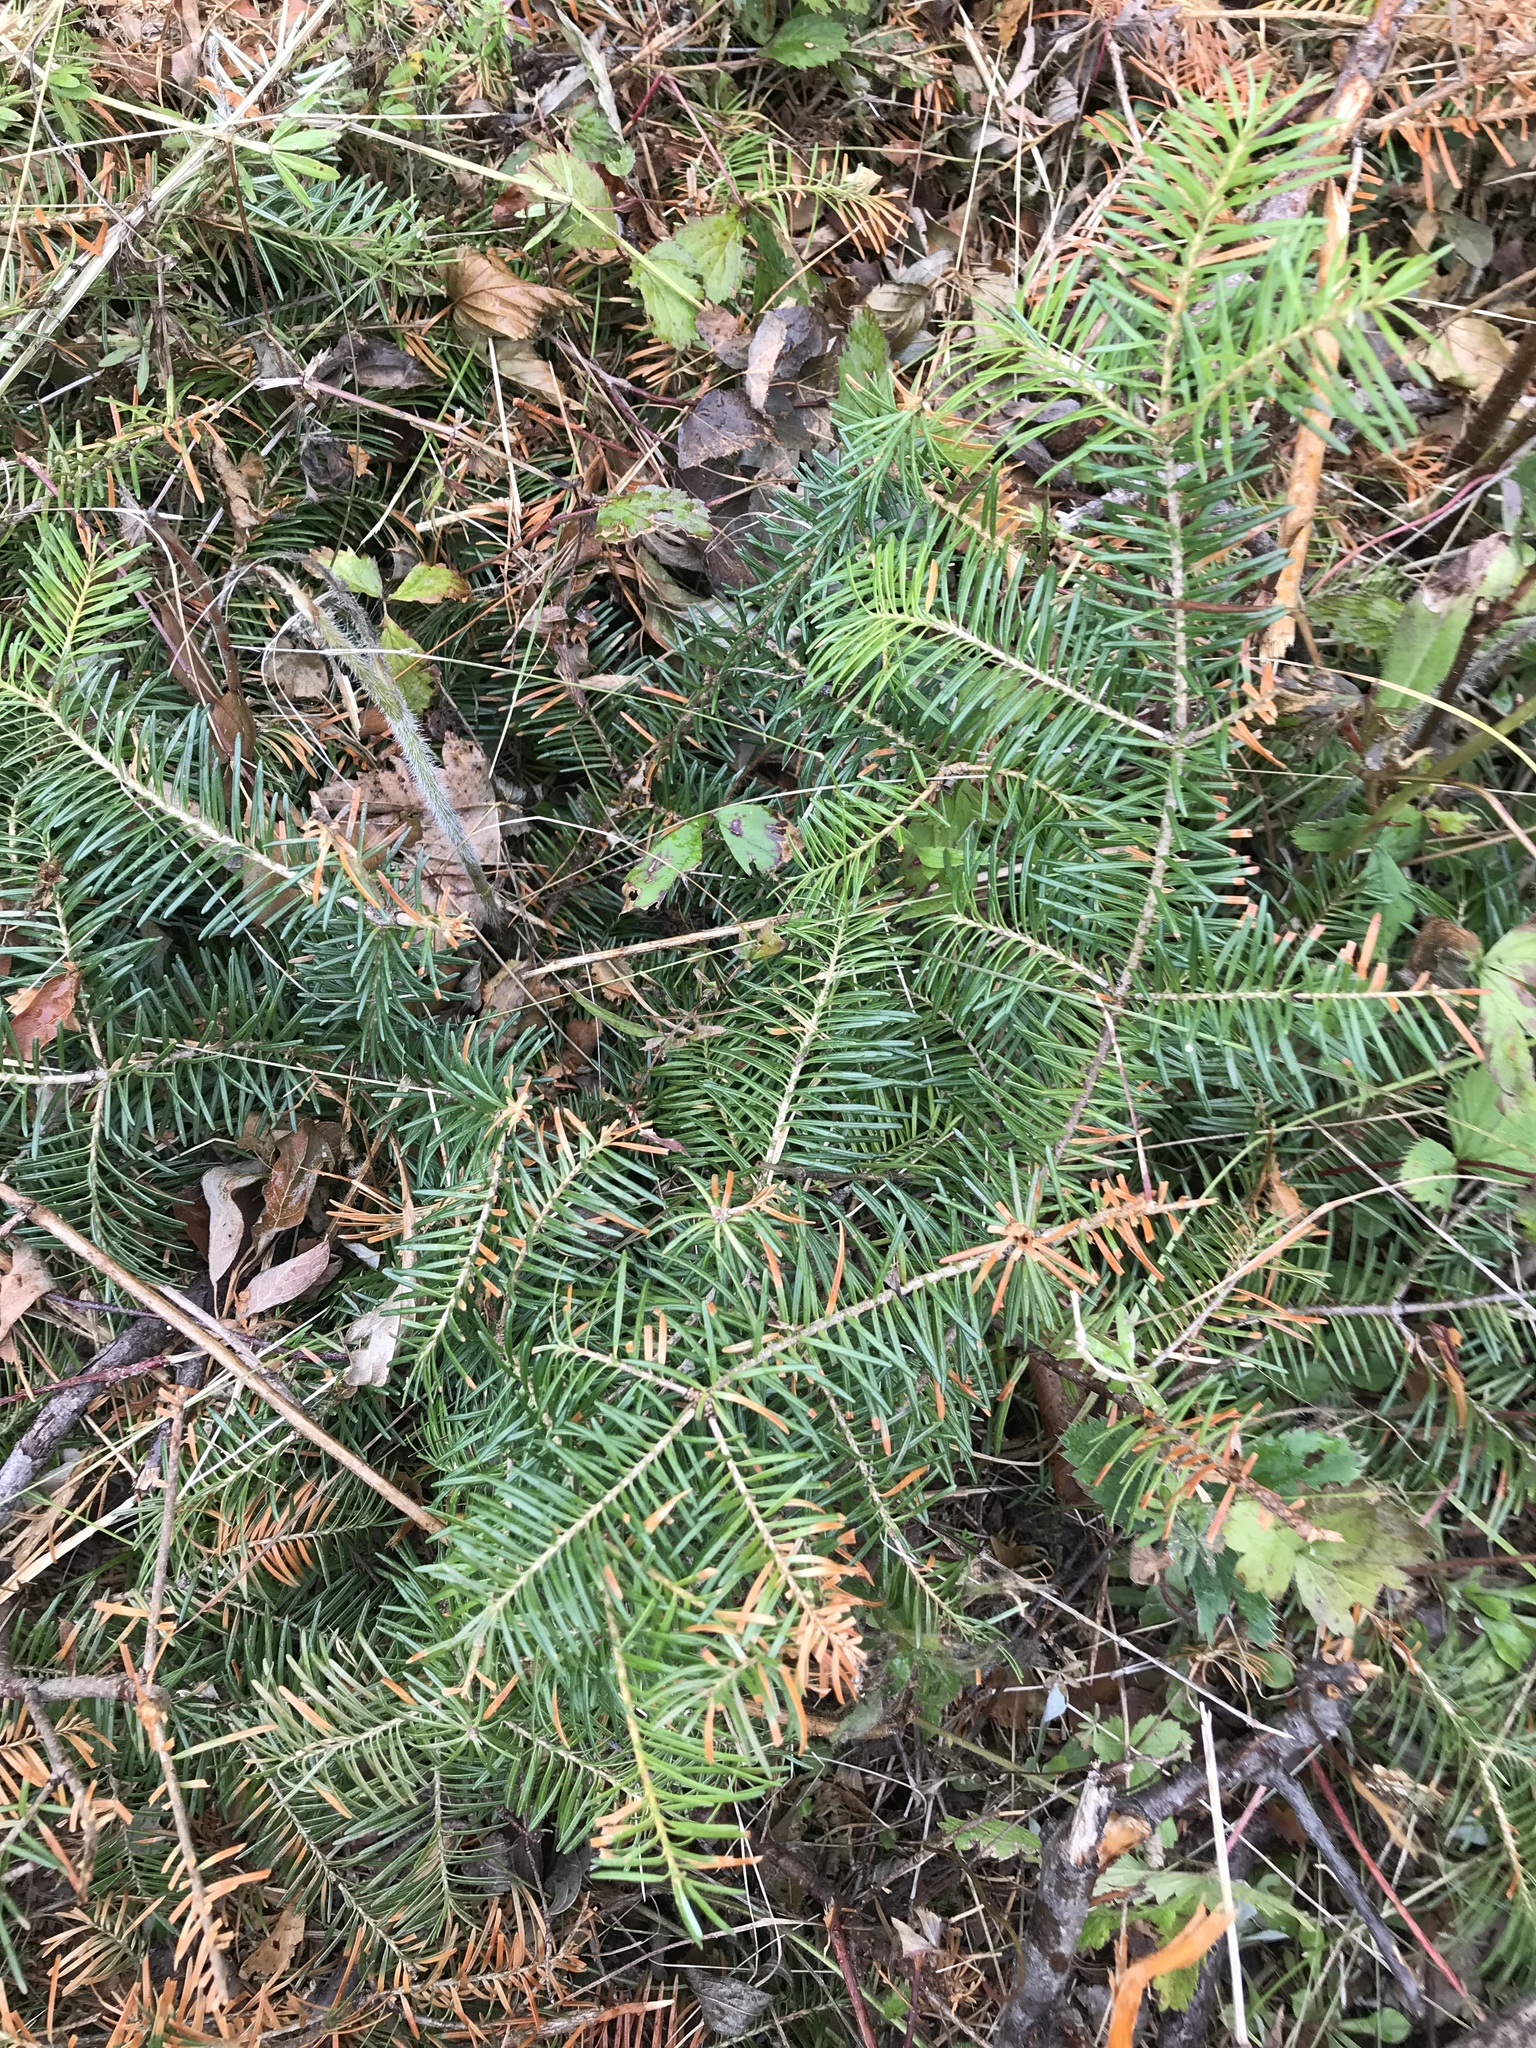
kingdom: Plantae
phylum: Tracheophyta
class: Pinopsida
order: Pinales
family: Pinaceae
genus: Abies
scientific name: Abies balsamea
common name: Balsam fir
